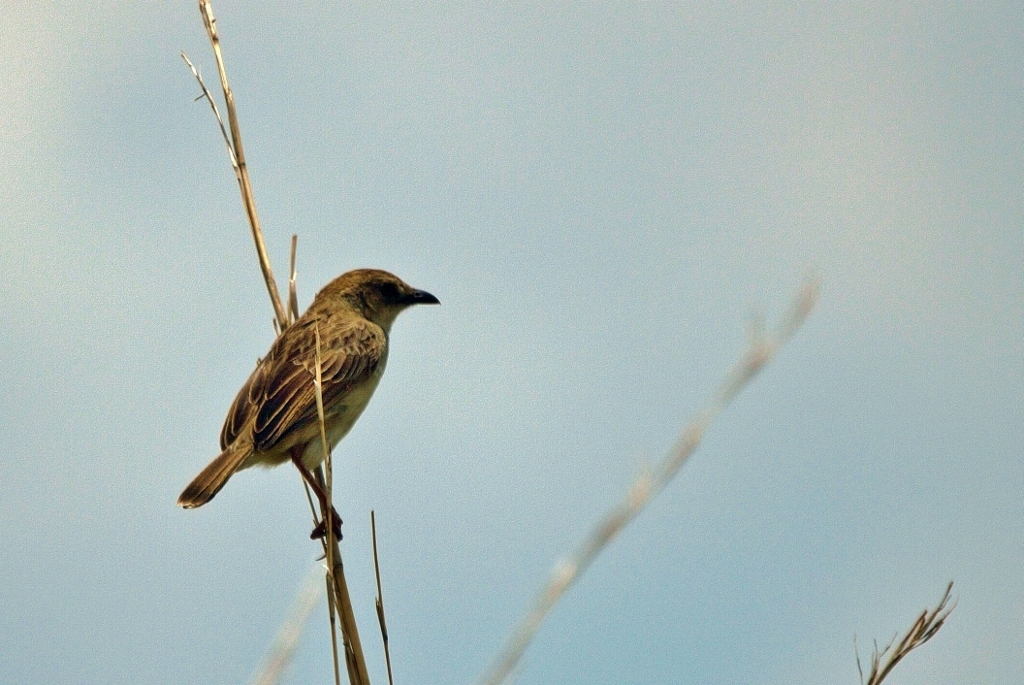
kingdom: Animalia
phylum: Chordata
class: Aves
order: Passeriformes
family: Cisticolidae
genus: Cisticola
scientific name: Cisticola natalensis
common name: Croaking cisticola
